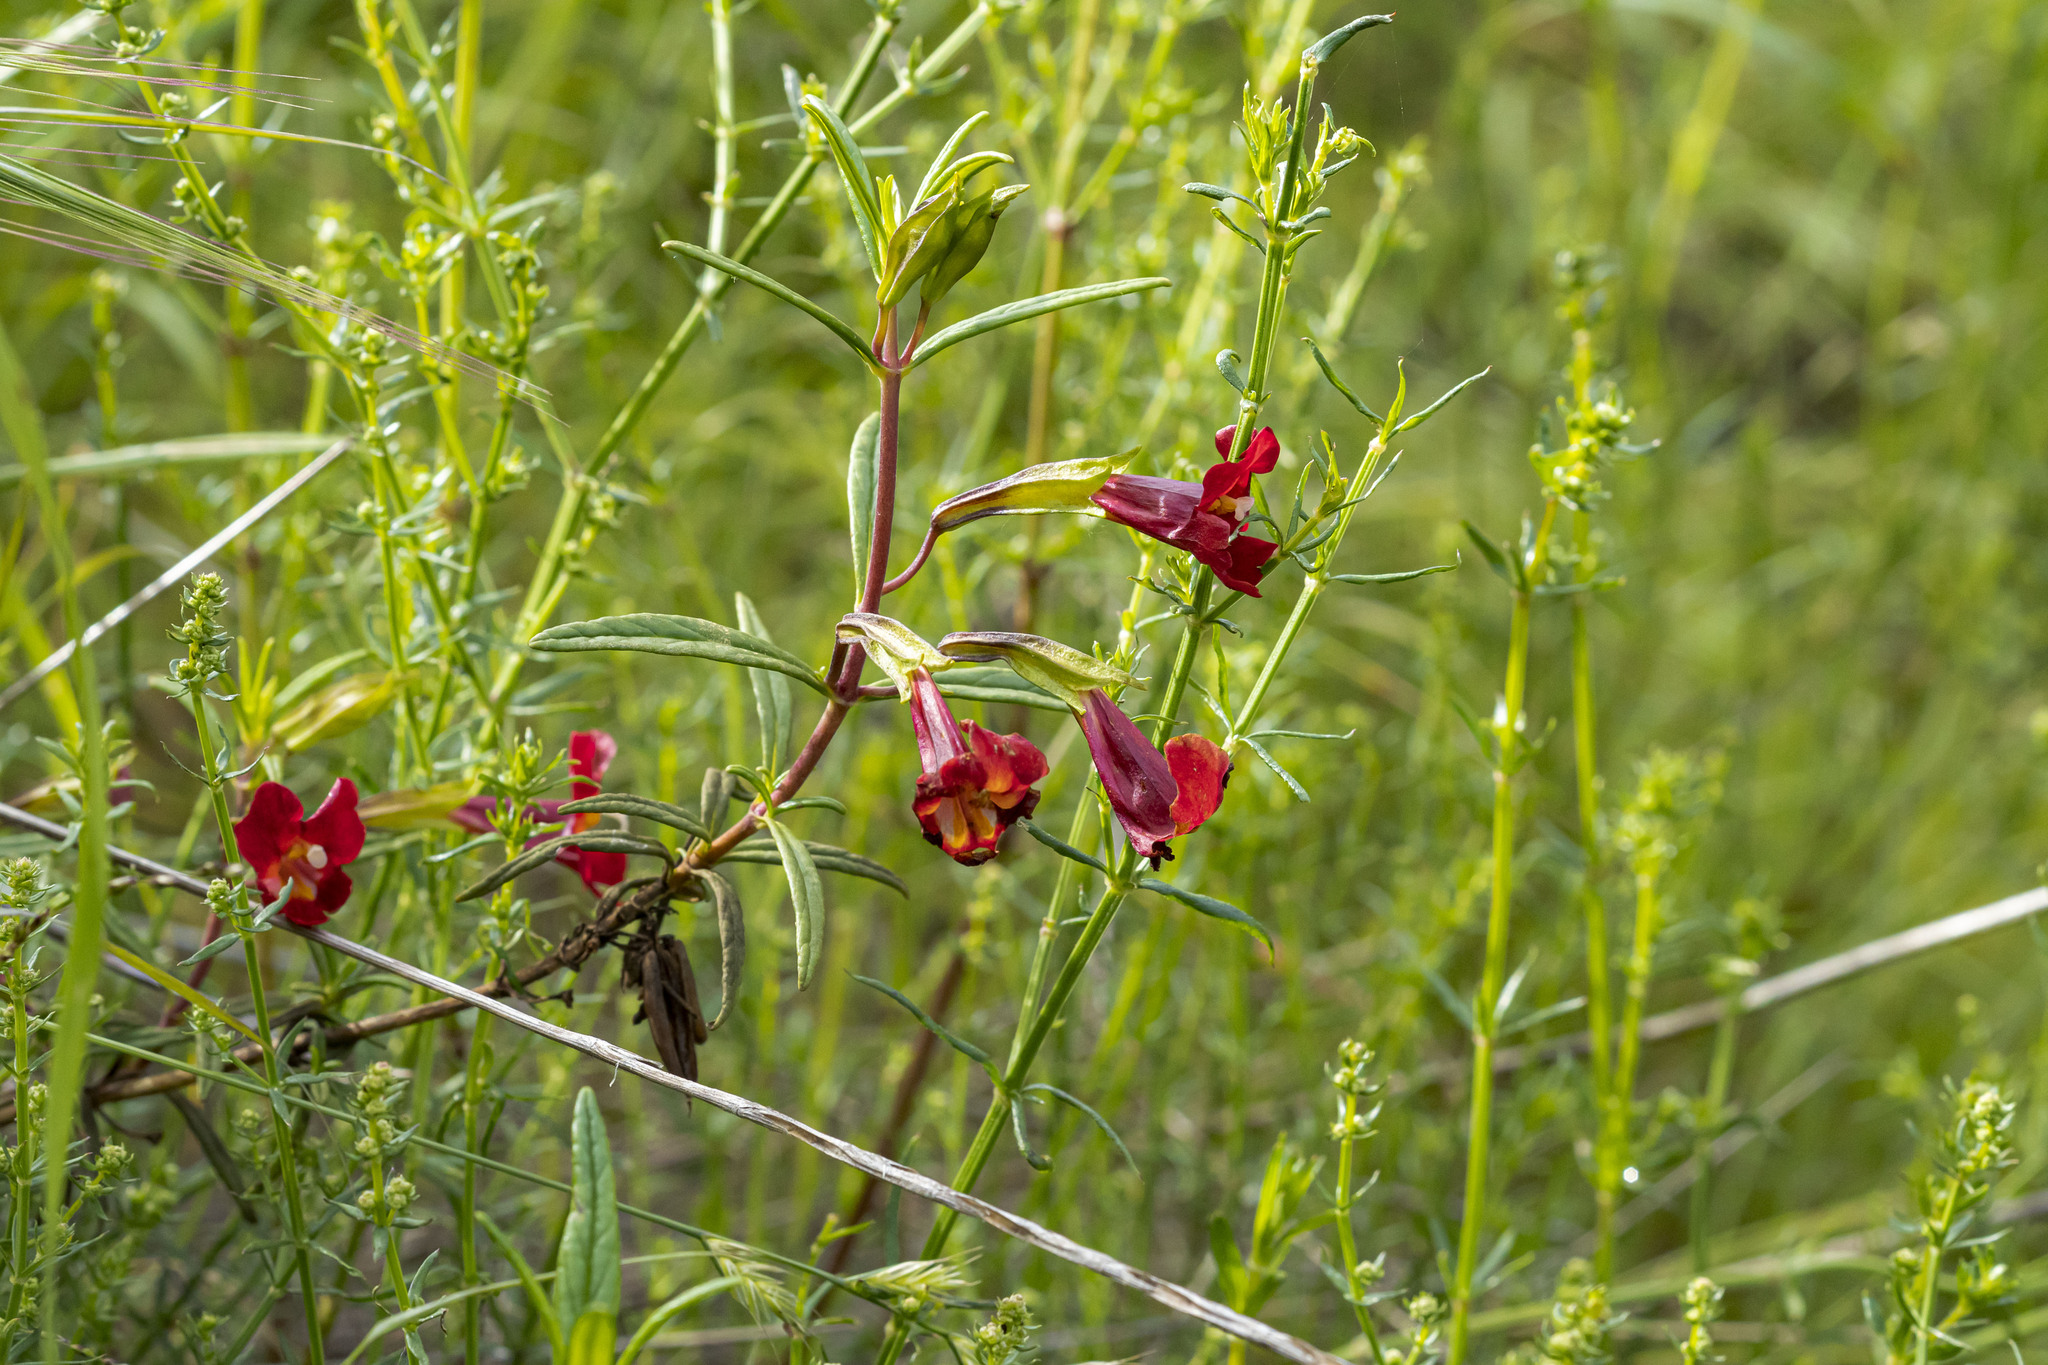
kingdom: Plantae
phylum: Tracheophyta
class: Magnoliopsida
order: Lamiales
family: Phrymaceae
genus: Diplacus
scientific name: Diplacus puniceus
